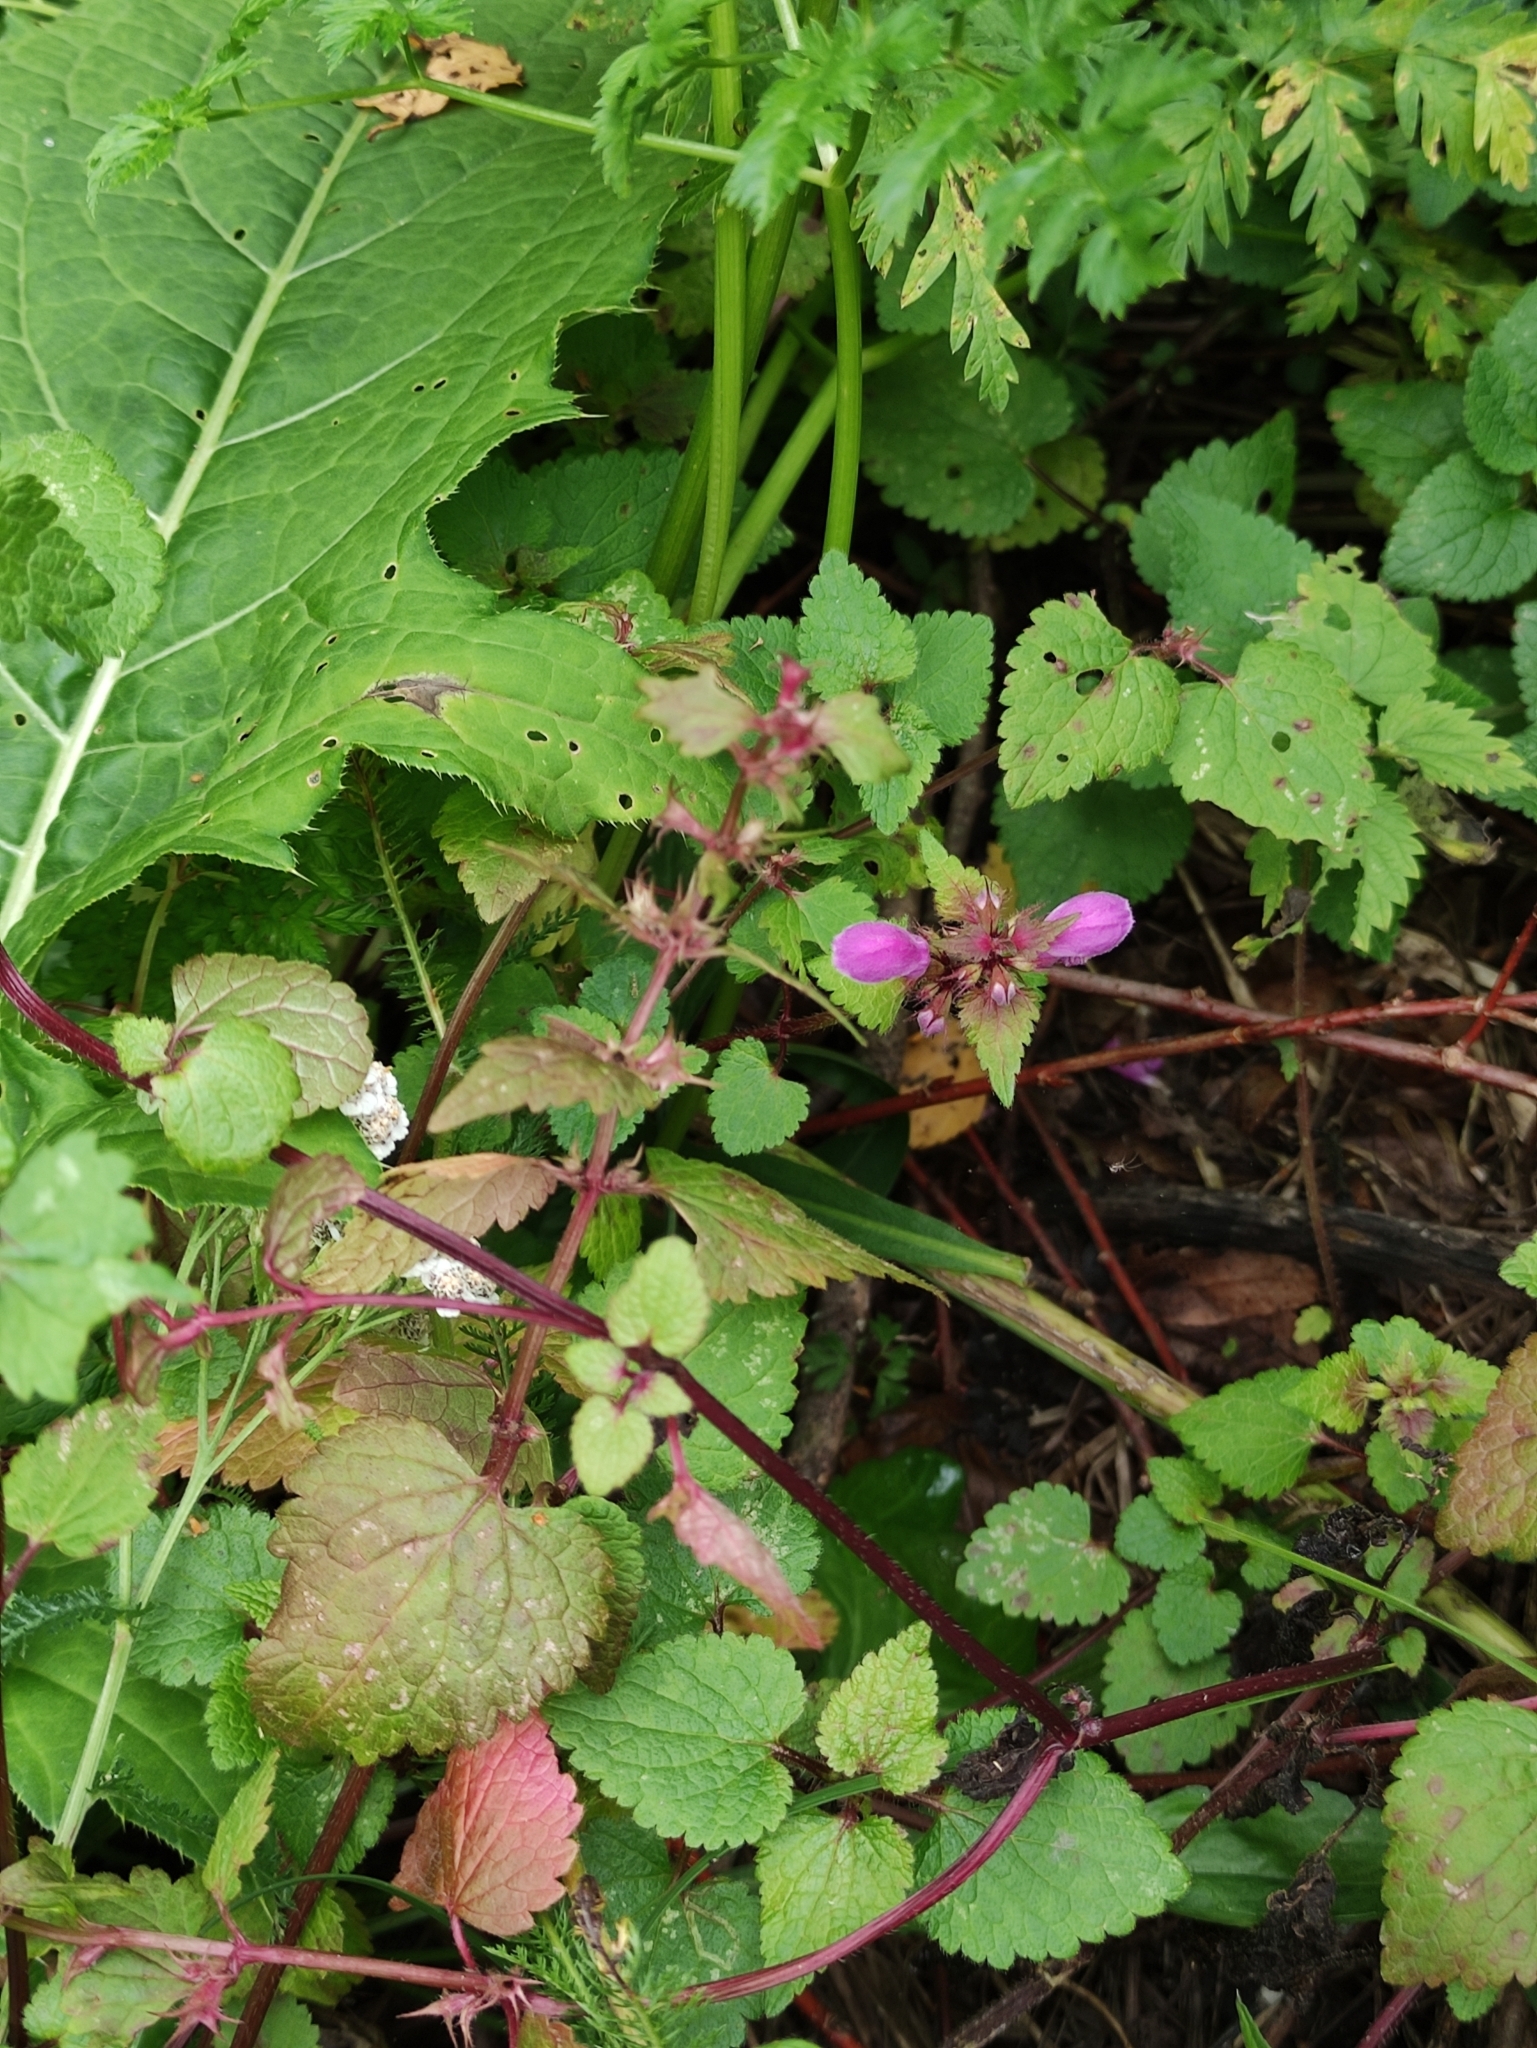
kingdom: Plantae
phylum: Tracheophyta
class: Magnoliopsida
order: Lamiales
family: Lamiaceae
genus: Lamium
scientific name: Lamium maculatum
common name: Spotted dead-nettle
